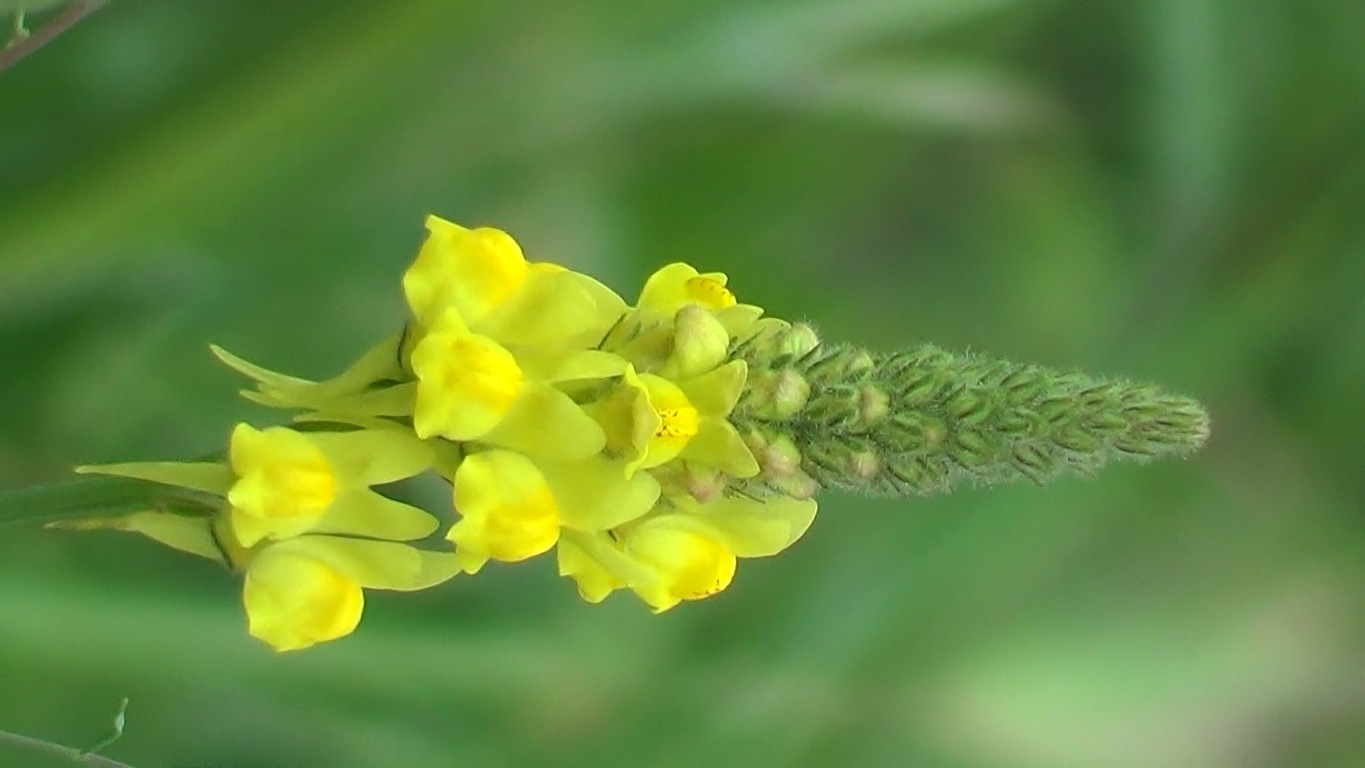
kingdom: Plantae
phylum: Tracheophyta
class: Magnoliopsida
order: Lamiales
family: Plantaginaceae
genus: Linaria
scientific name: Linaria multicaulis
